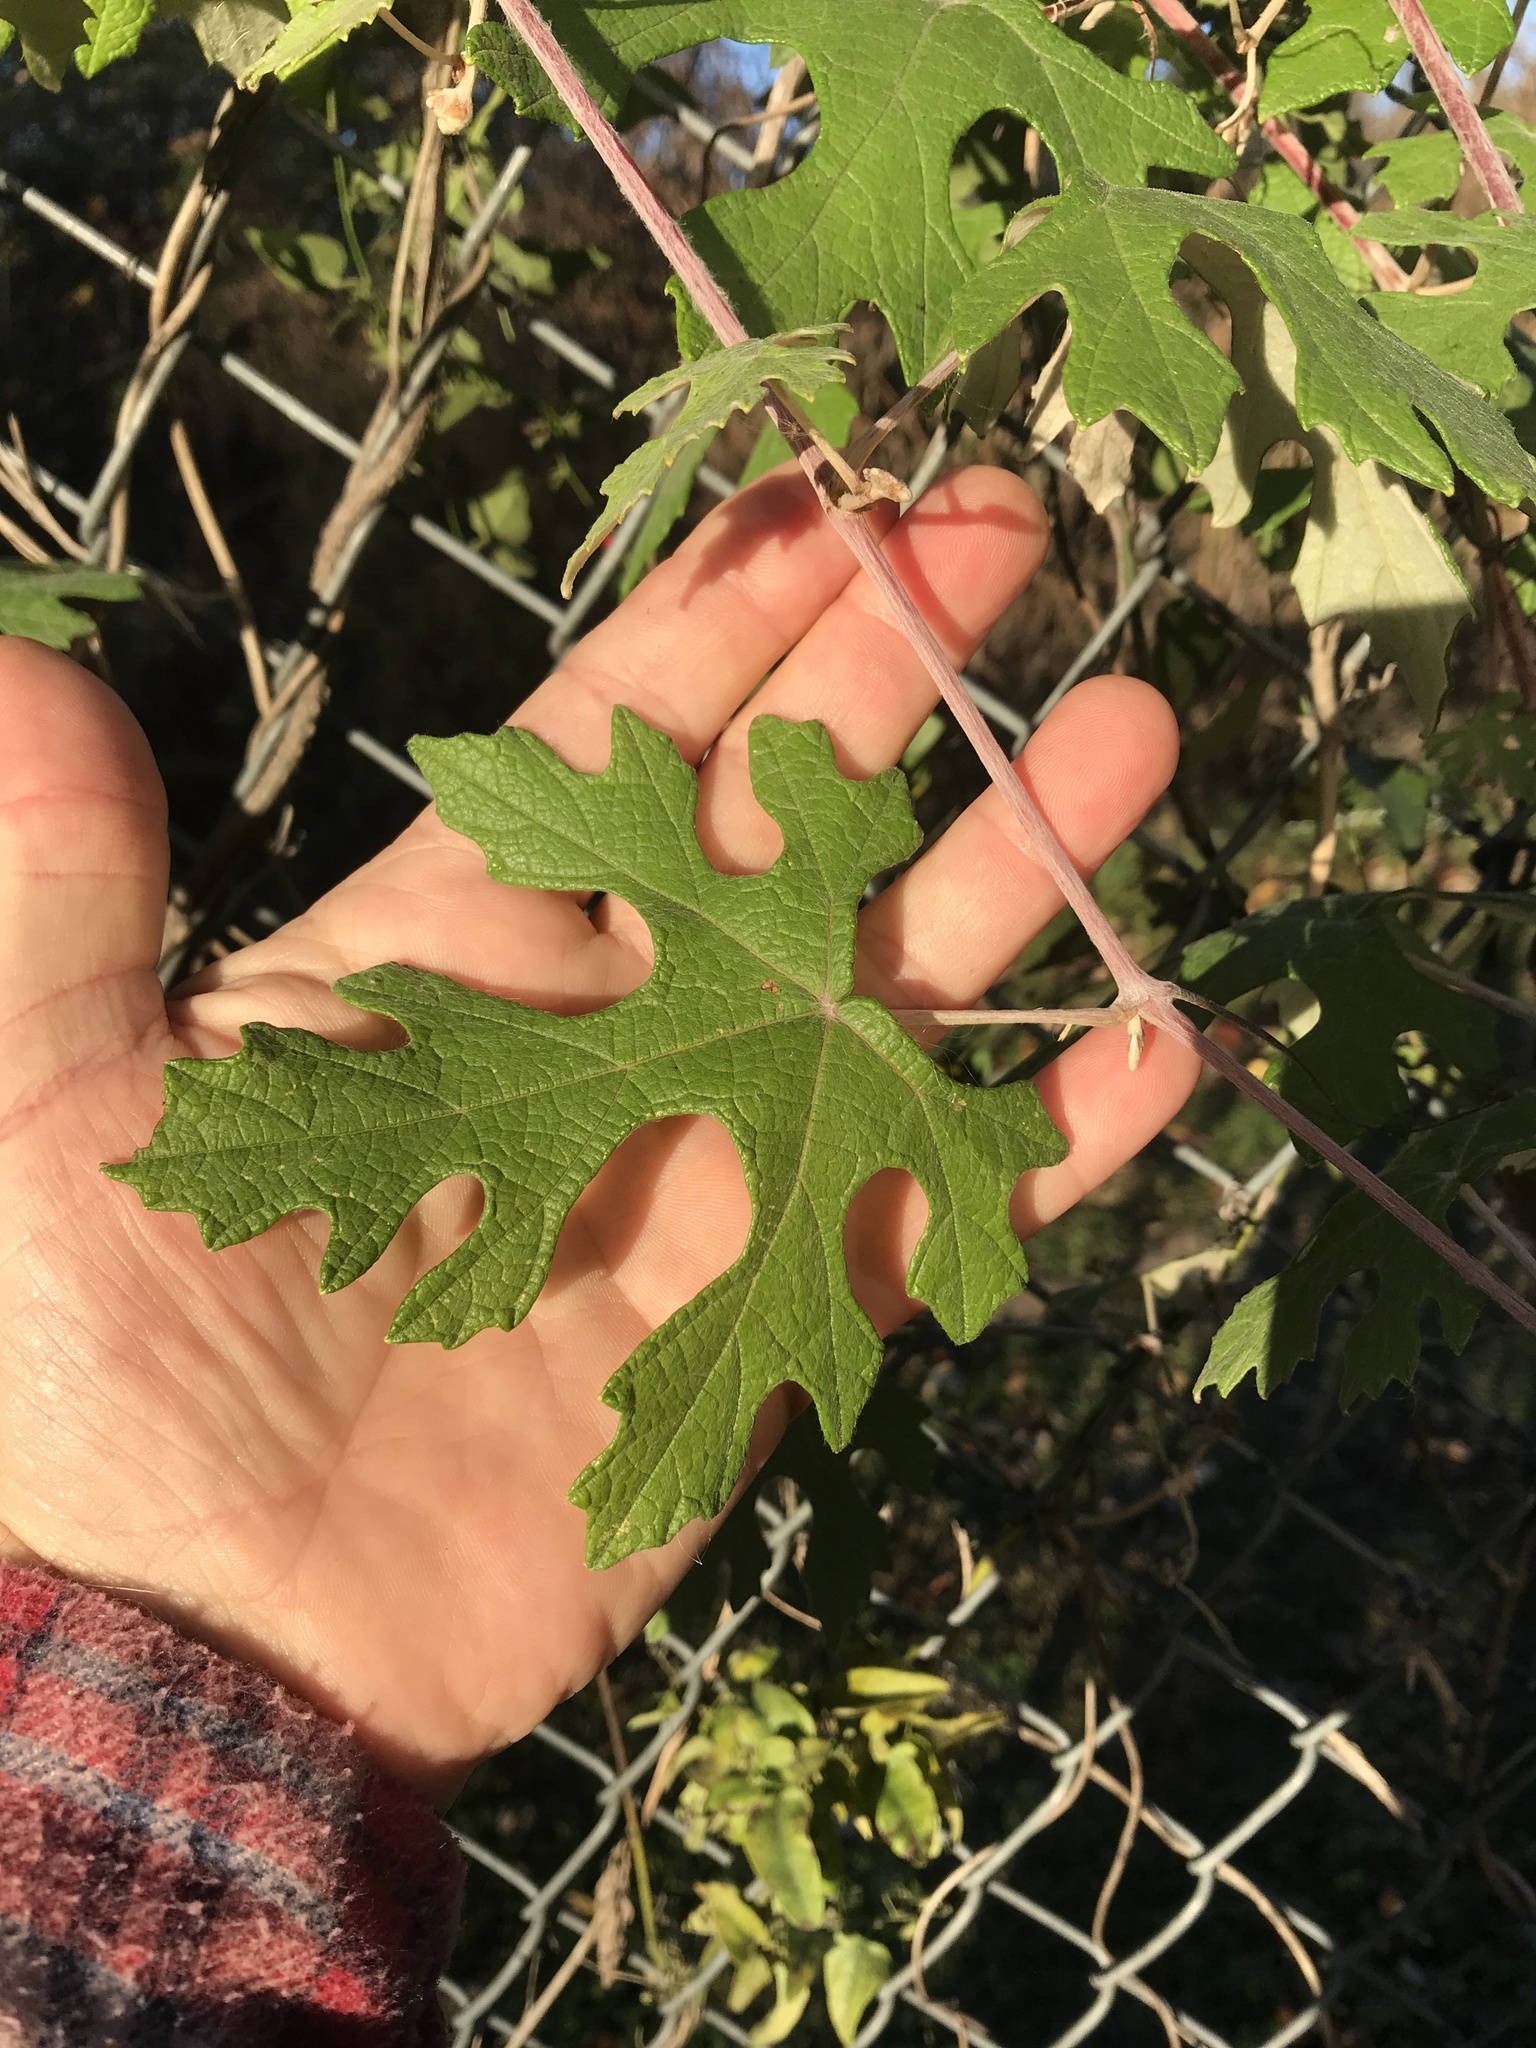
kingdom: Plantae
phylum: Tracheophyta
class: Magnoliopsida
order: Vitales
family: Vitaceae
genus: Vitis
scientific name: Vitis mustangensis
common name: Mustang grape
